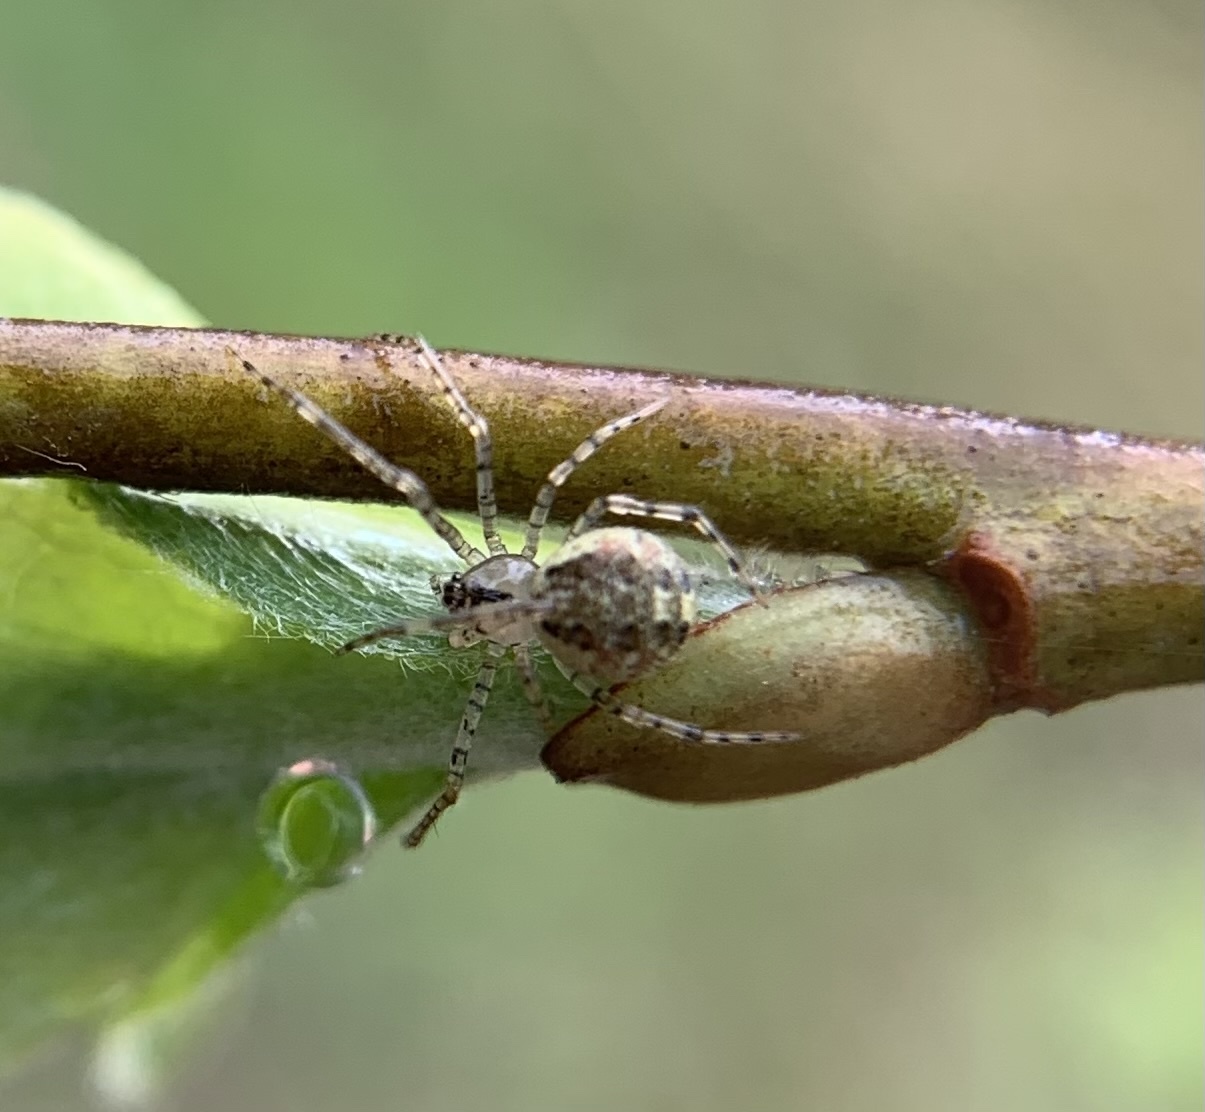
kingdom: Animalia
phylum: Arthropoda
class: Arachnida
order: Araneae
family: Theridiidae
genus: Platnickina
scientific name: Platnickina tincta
